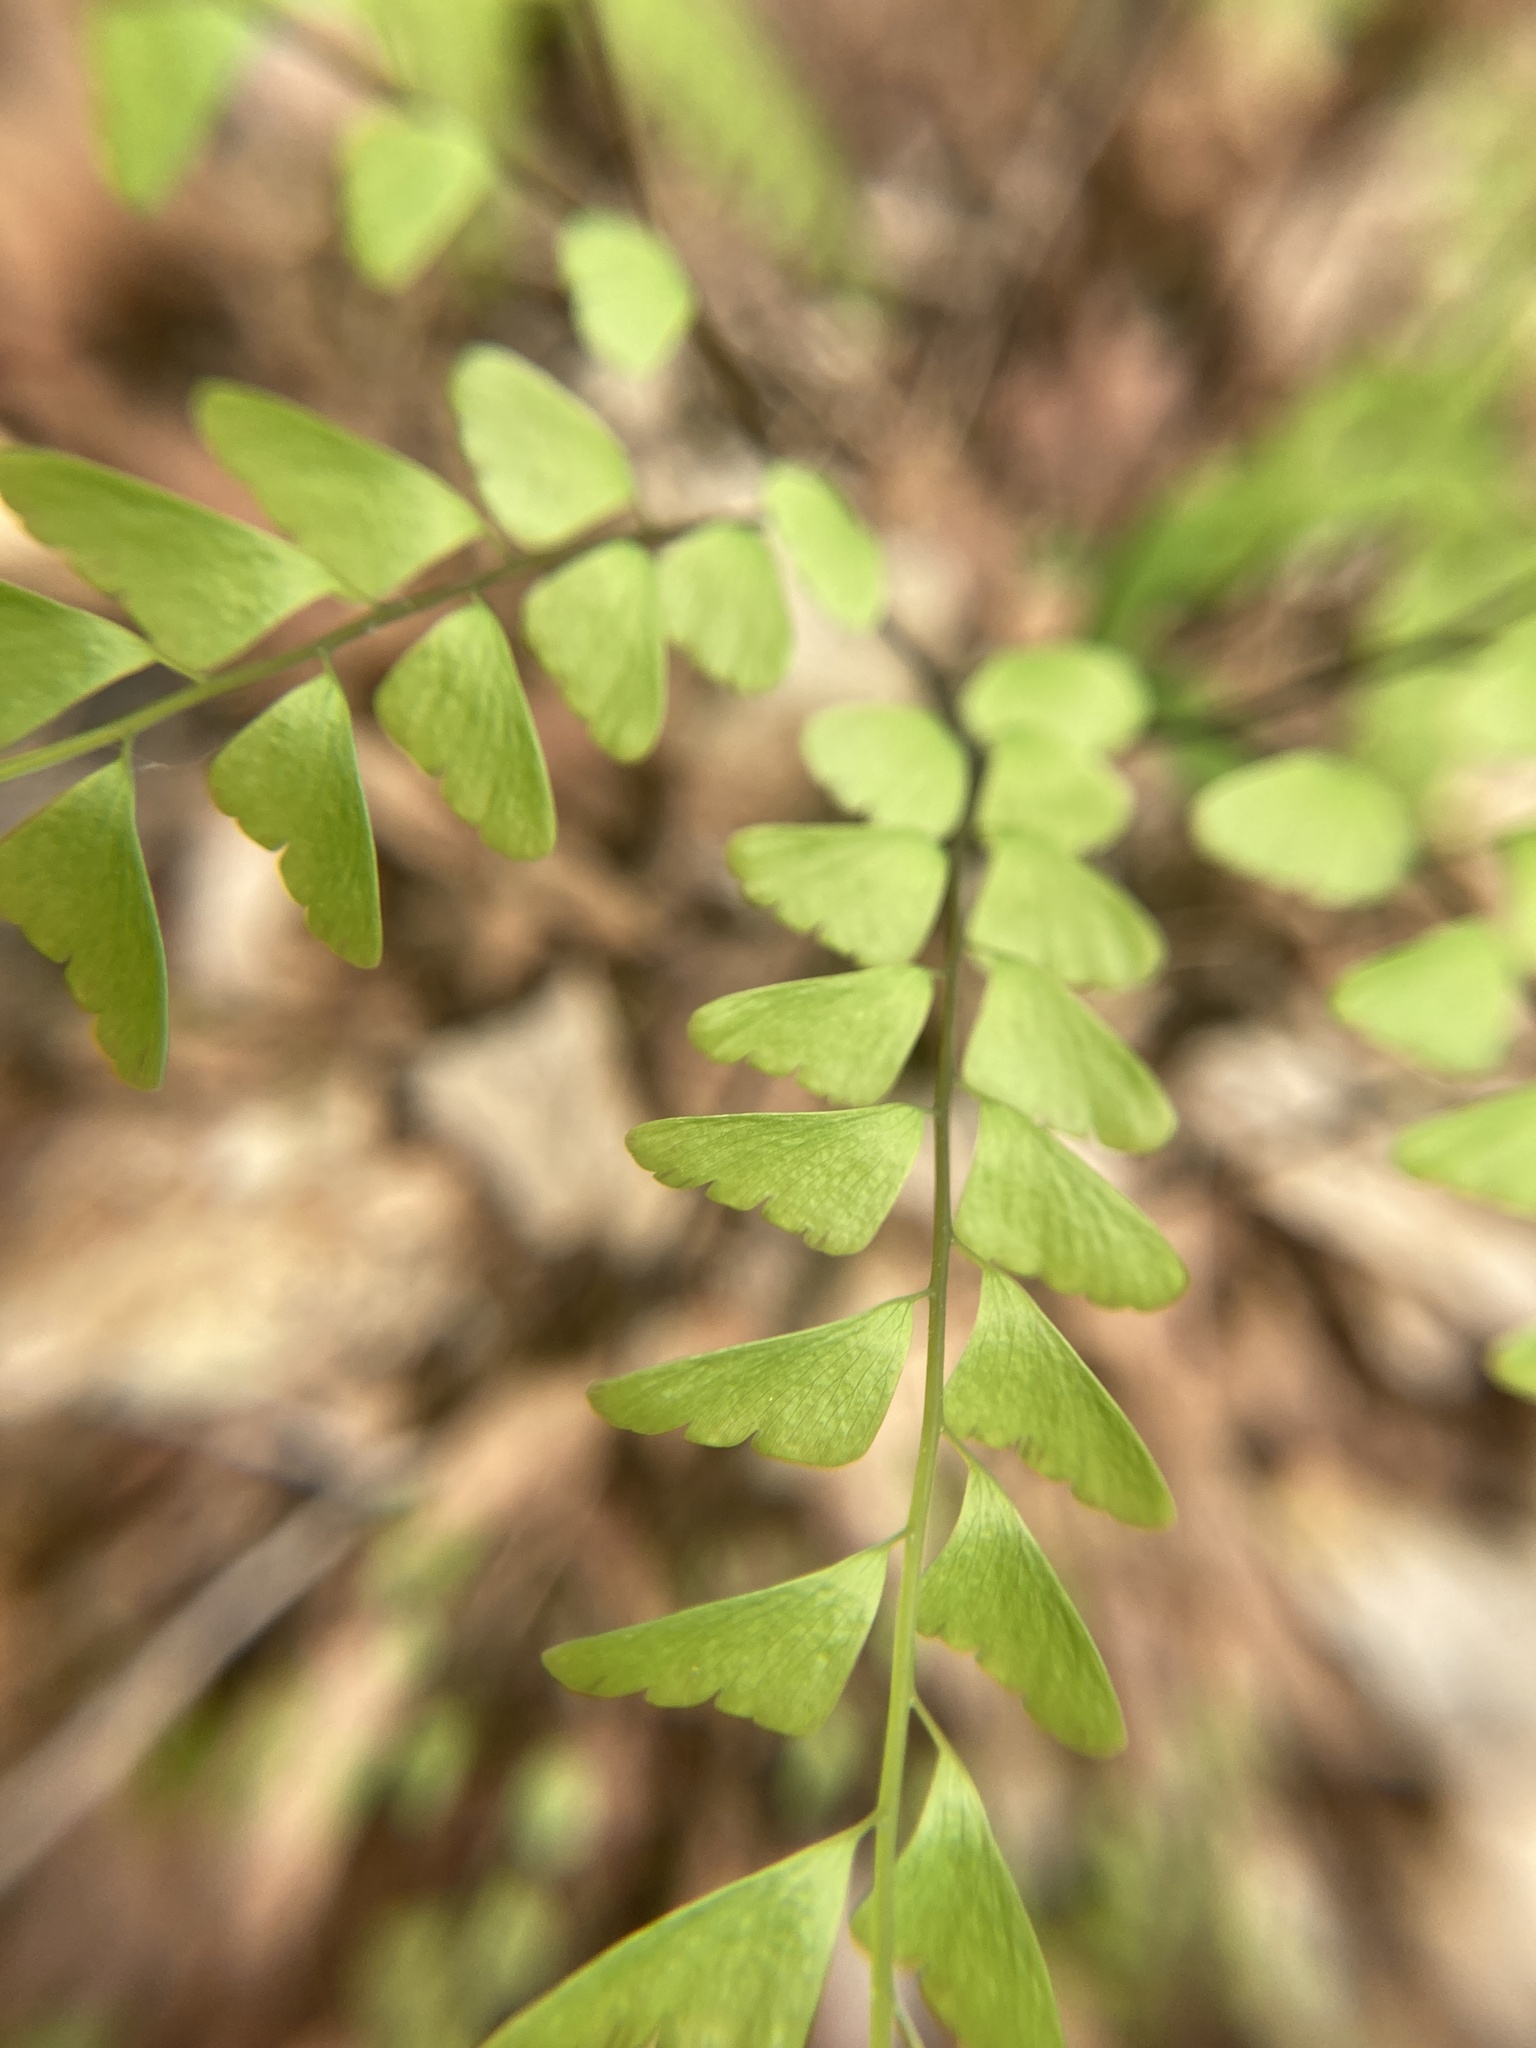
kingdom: Plantae
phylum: Tracheophyta
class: Polypodiopsida
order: Polypodiales
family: Pteridaceae
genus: Adiantum
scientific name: Adiantum pedatum
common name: Five-finger fern
